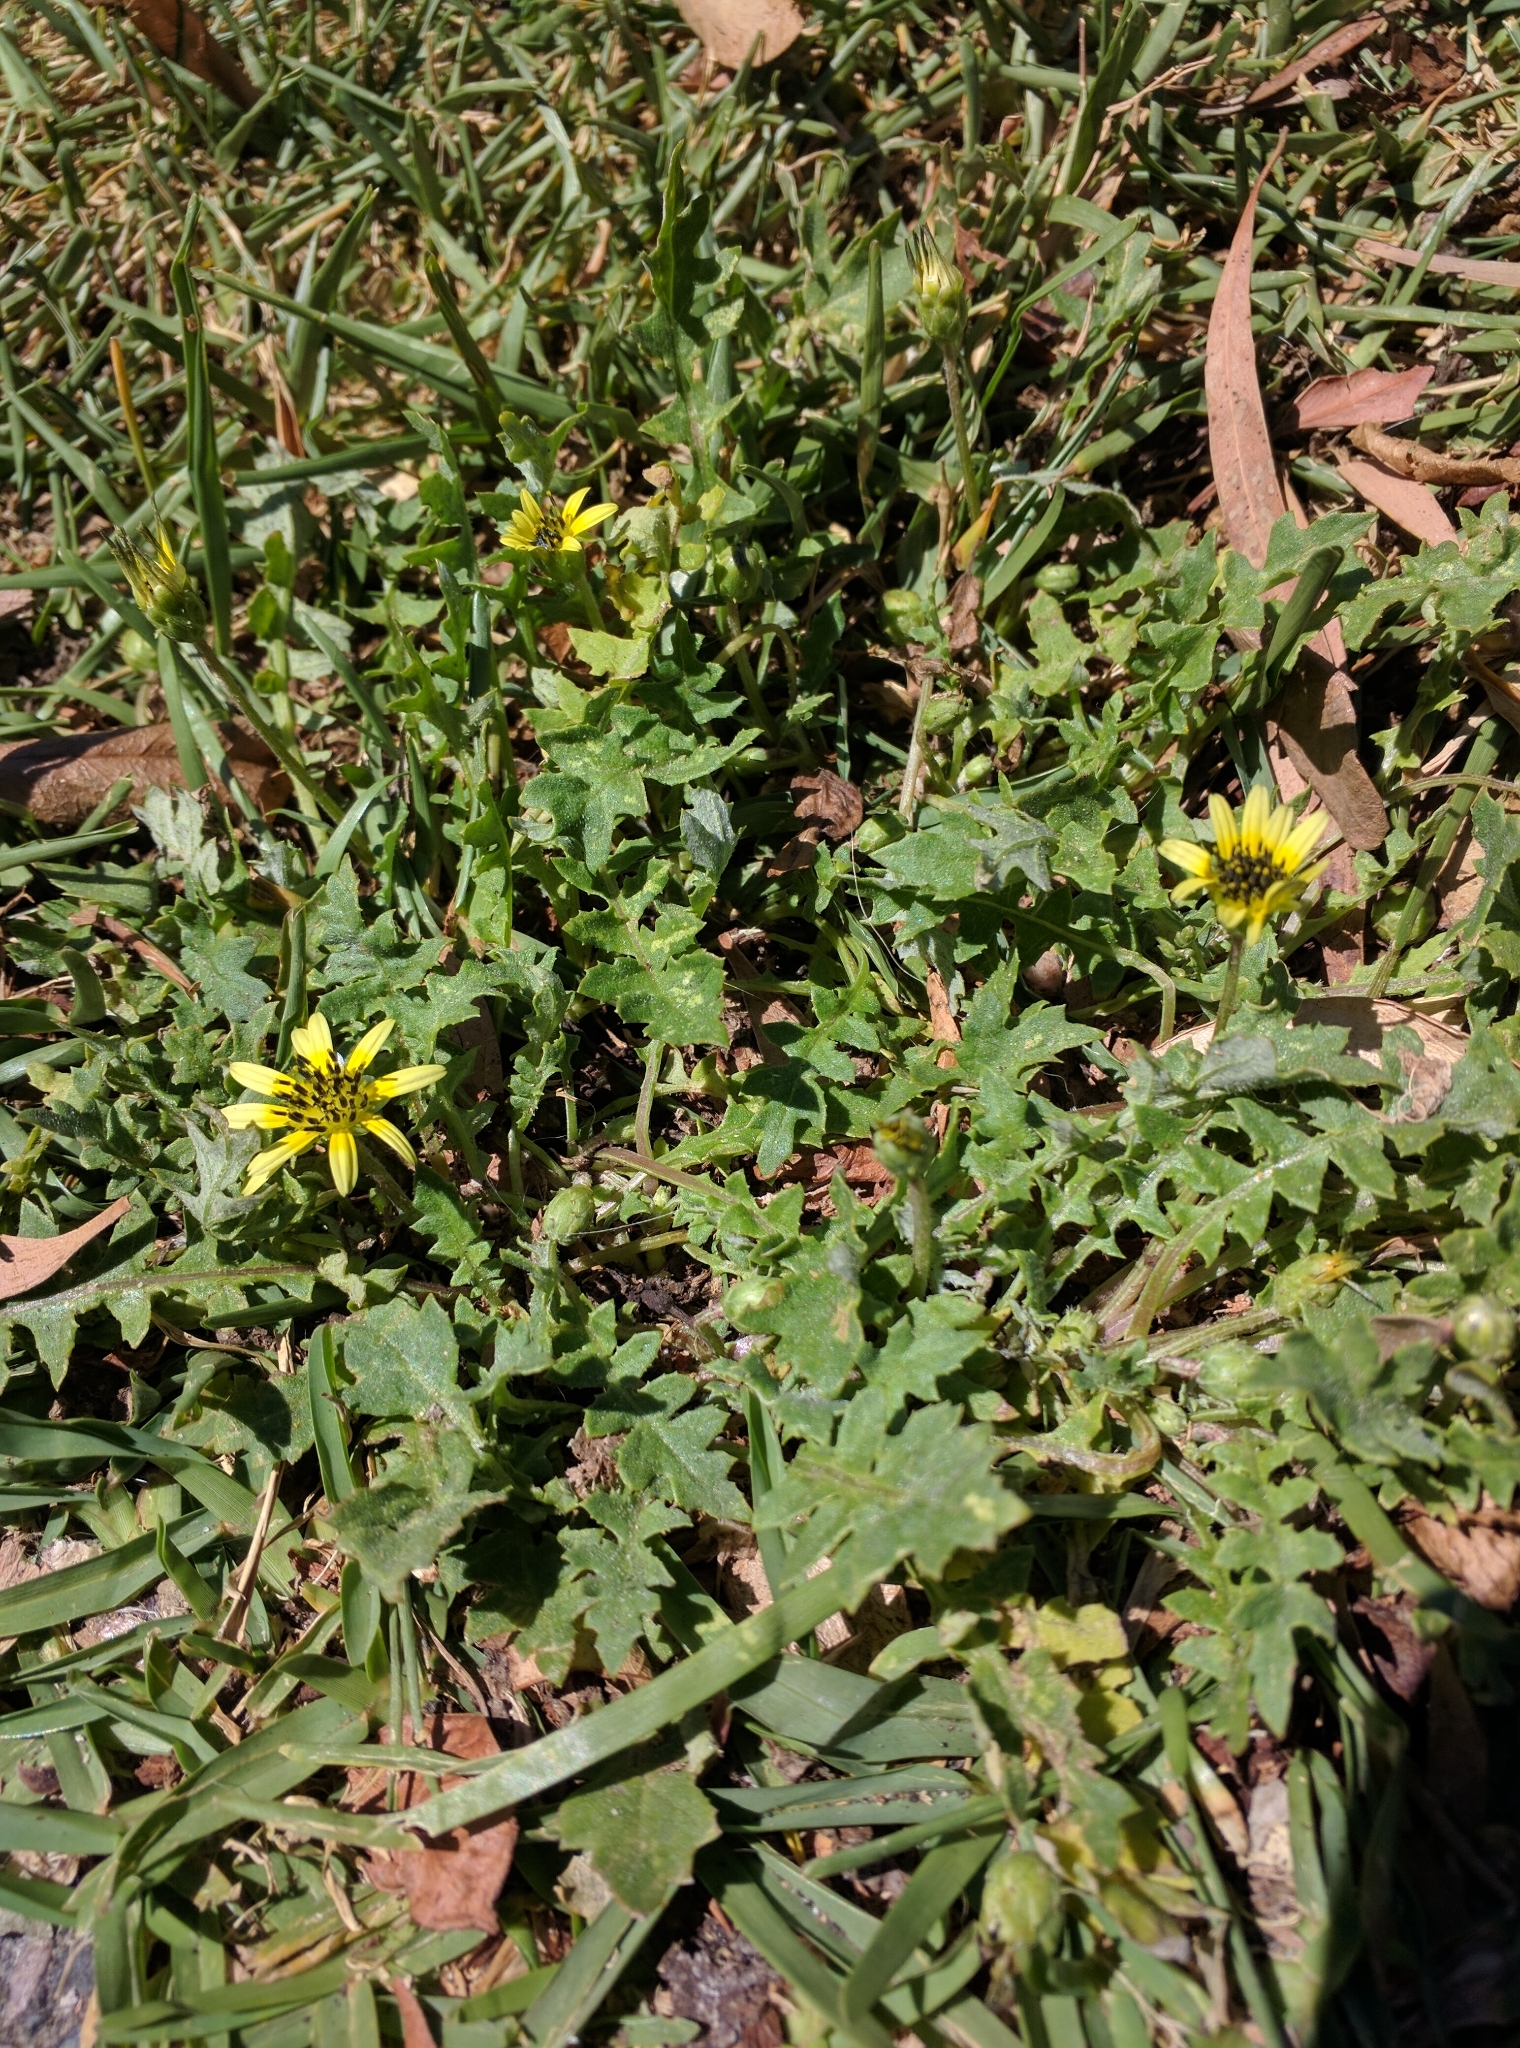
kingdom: Plantae
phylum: Tracheophyta
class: Magnoliopsida
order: Asterales
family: Asteraceae
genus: Arctotheca
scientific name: Arctotheca calendula
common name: Capeweed
